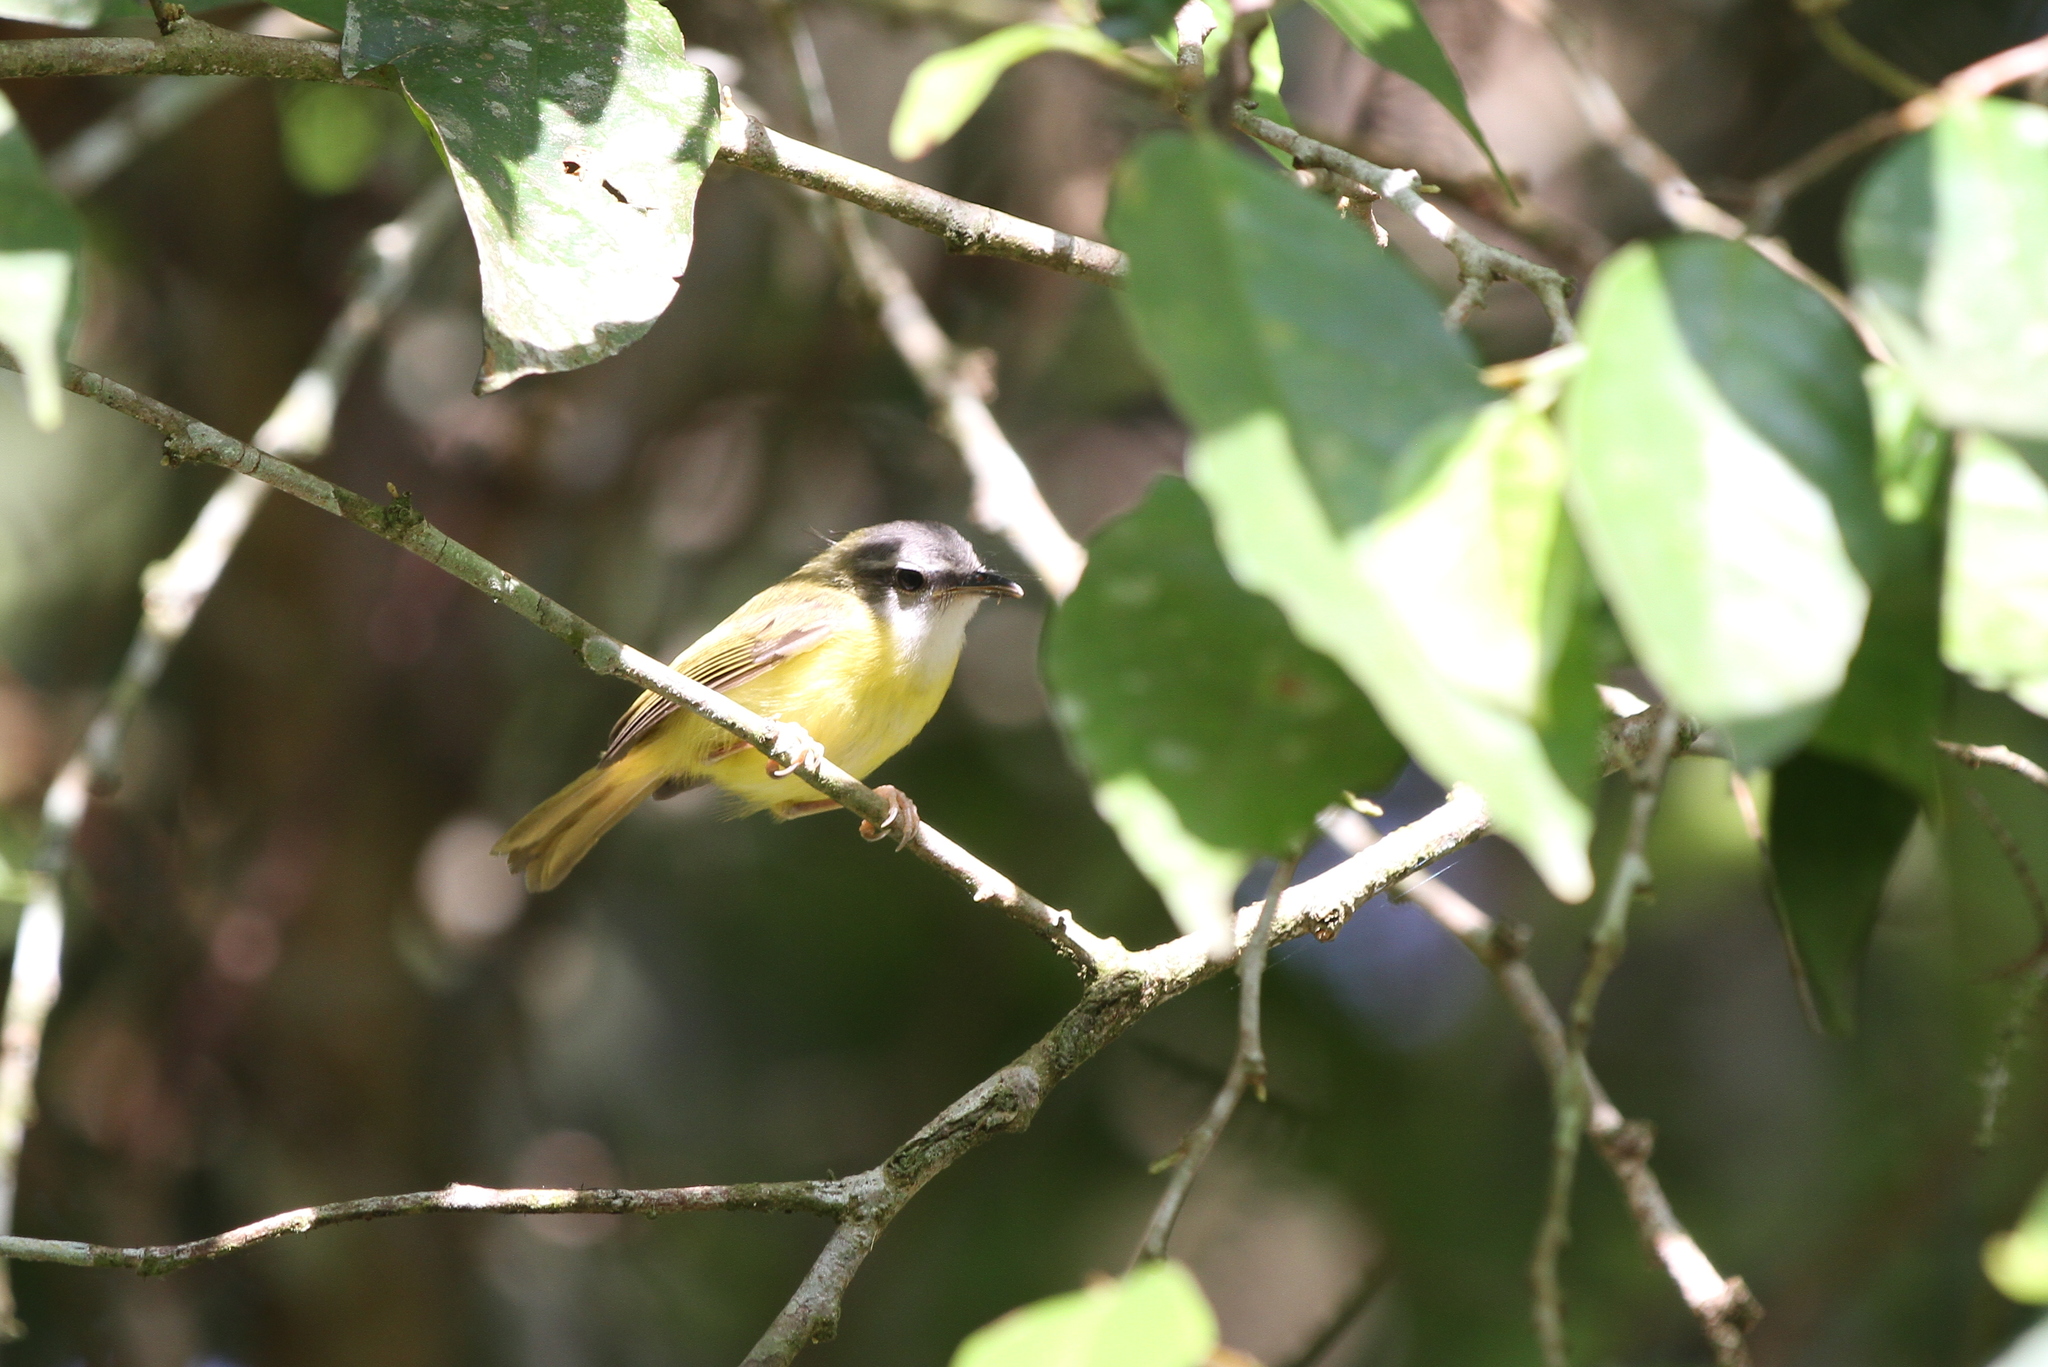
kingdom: Animalia
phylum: Chordata
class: Aves
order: Passeriformes
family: Cettiidae
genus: Abroscopus
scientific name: Abroscopus superciliaris
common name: Yellow-bellied warbler
